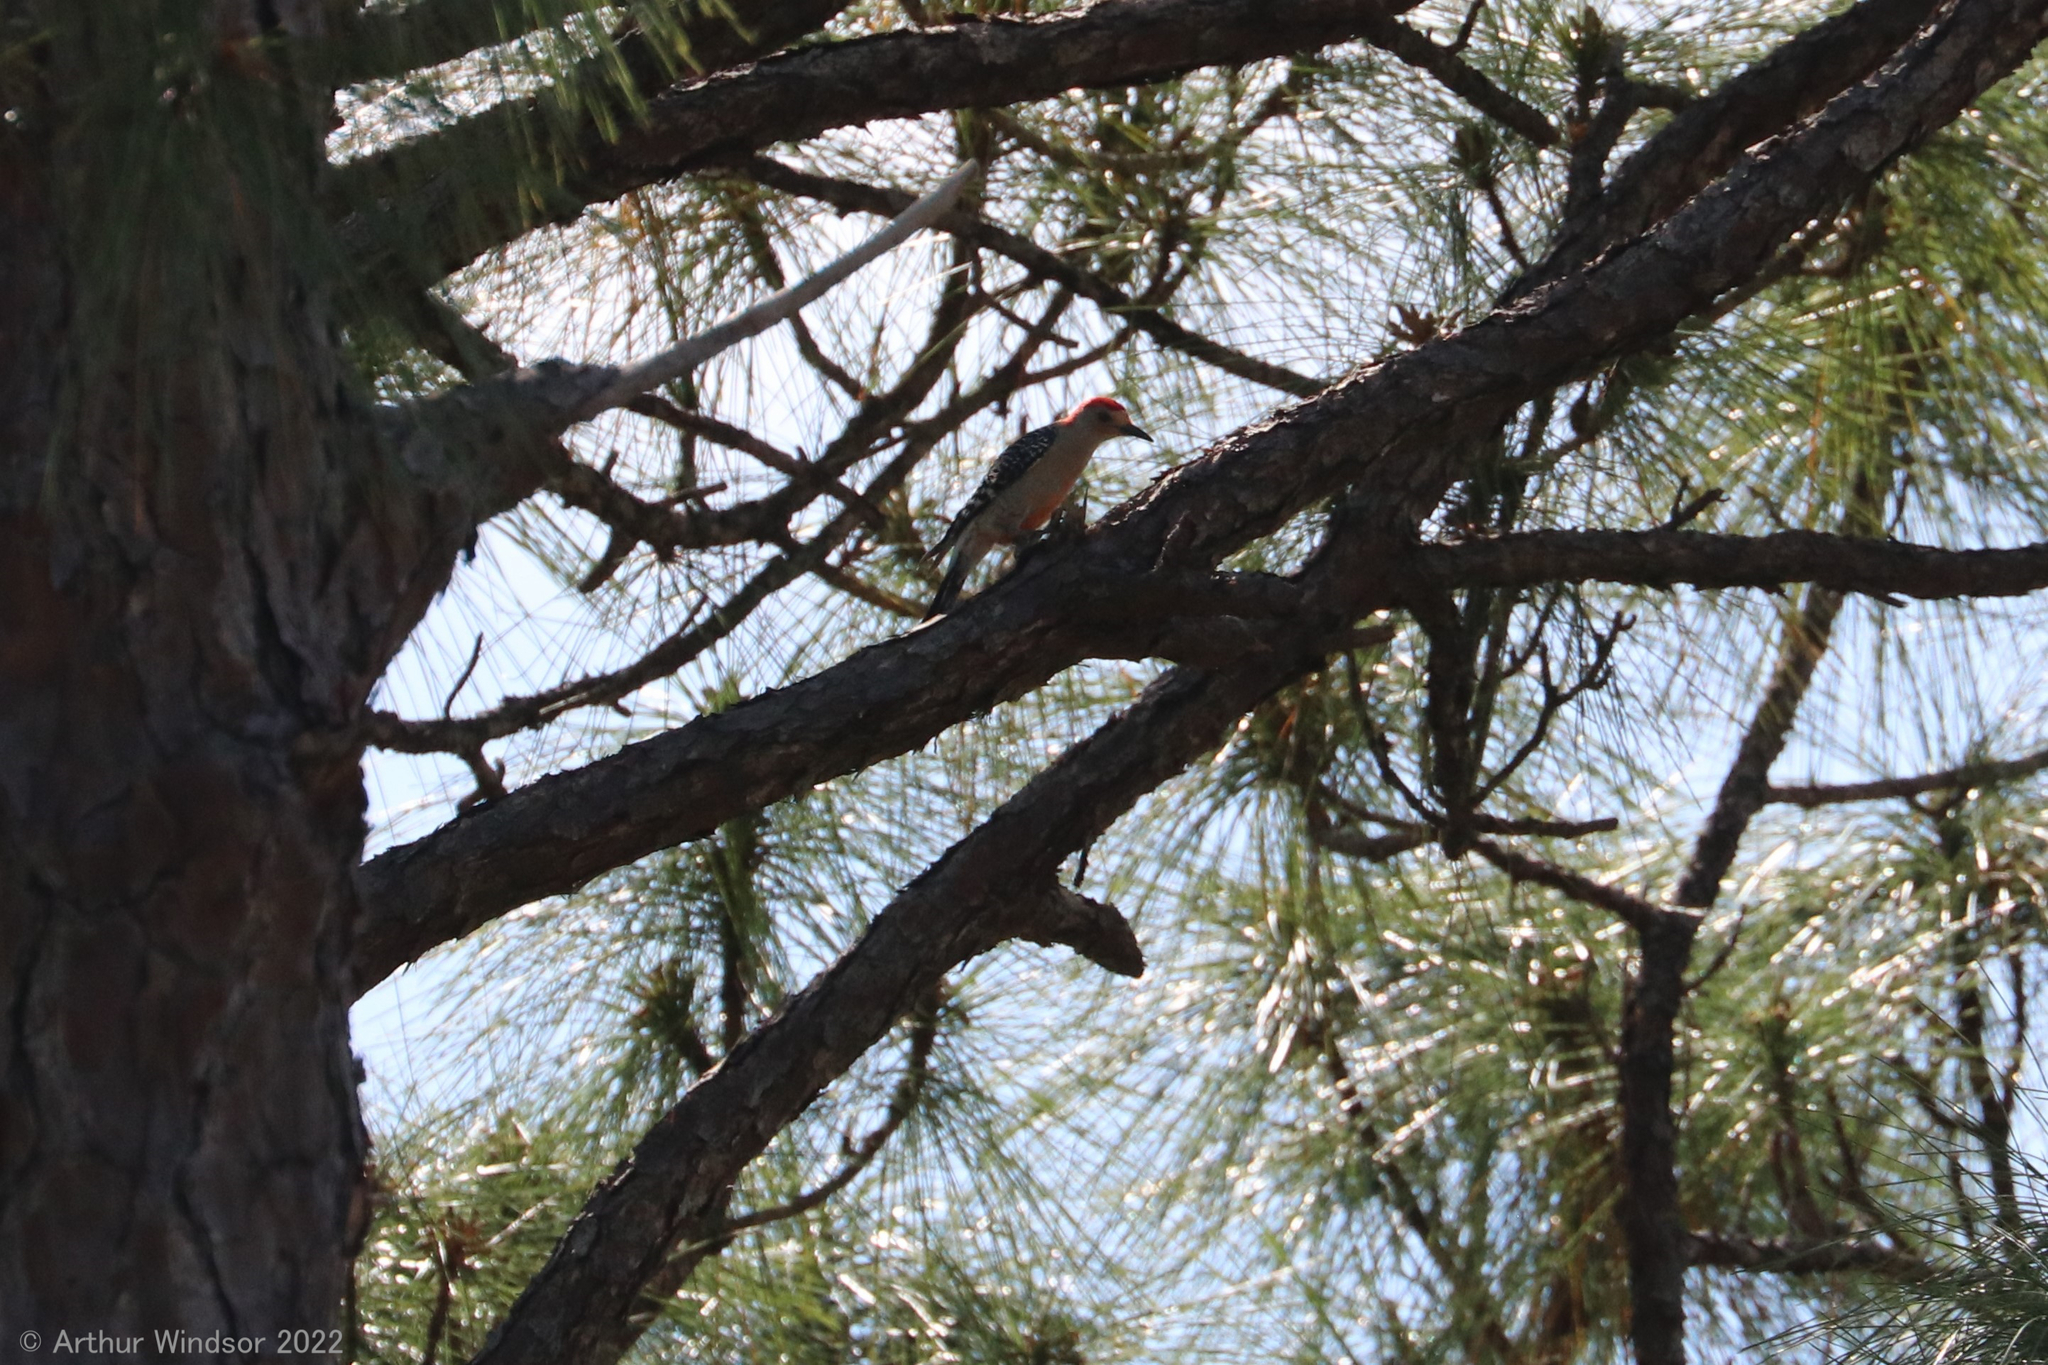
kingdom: Animalia
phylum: Chordata
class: Aves
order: Piciformes
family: Picidae
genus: Melanerpes
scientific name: Melanerpes carolinus
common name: Red-bellied woodpecker
